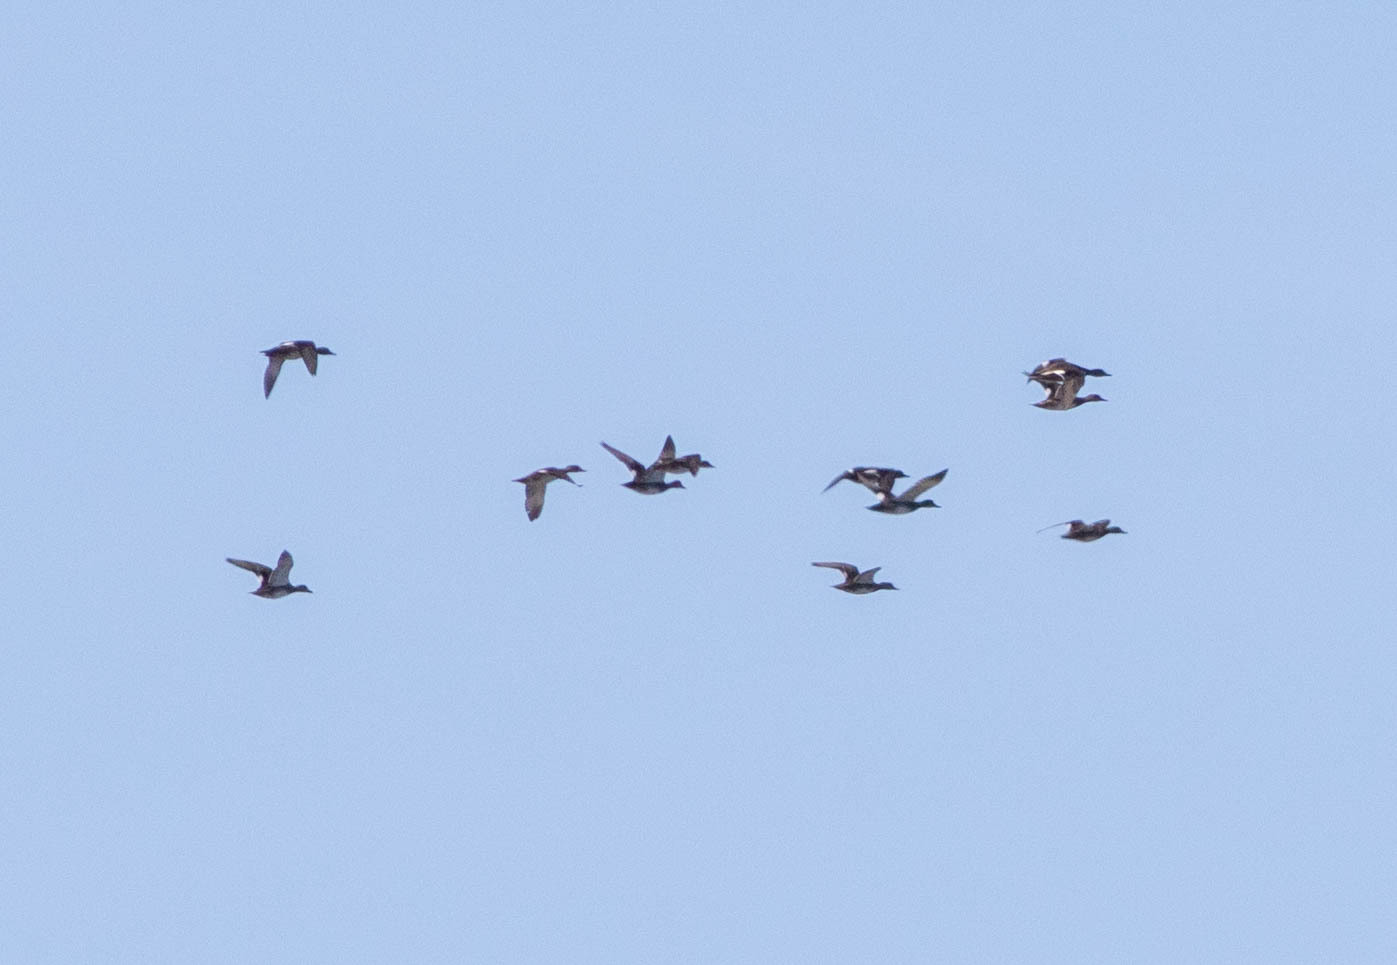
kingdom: Animalia
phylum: Chordata
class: Aves
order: Anseriformes
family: Anatidae
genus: Anas
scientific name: Anas acuta
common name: Northern pintail
